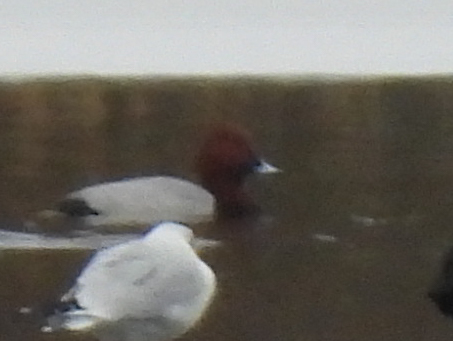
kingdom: Animalia
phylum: Chordata
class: Aves
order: Anseriformes
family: Anatidae
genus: Aythya
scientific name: Aythya ferina
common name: Common pochard
